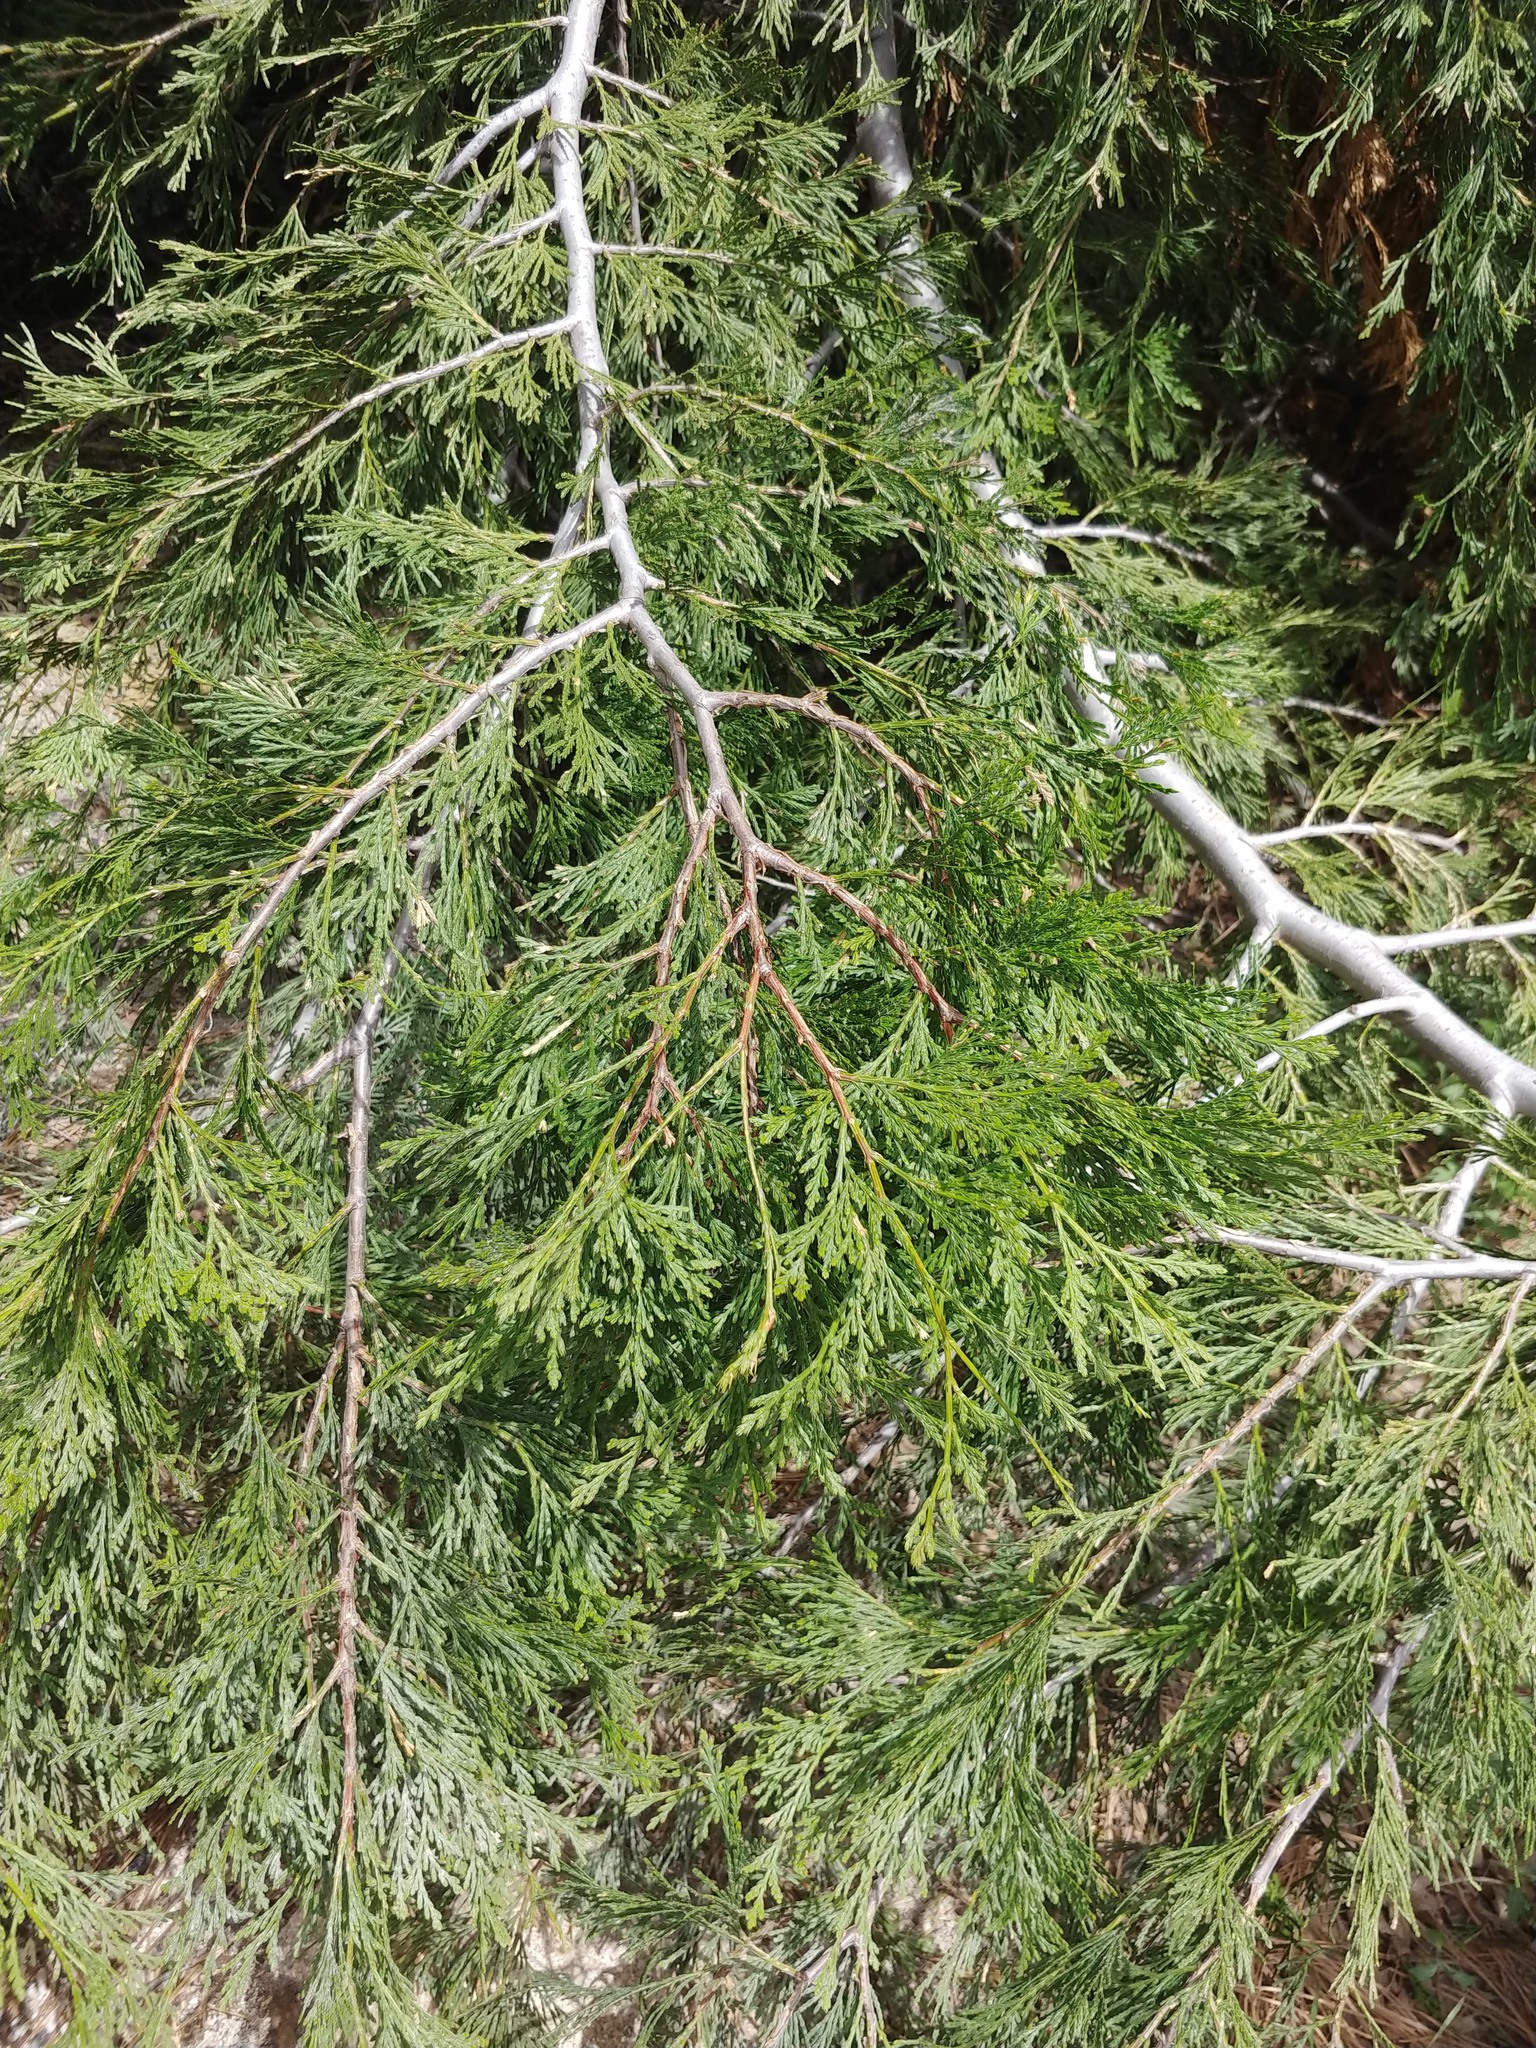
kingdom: Plantae
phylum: Tracheophyta
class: Pinopsida
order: Pinales
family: Cupressaceae
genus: Calocedrus
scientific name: Calocedrus decurrens
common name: Californian incense-cedar
